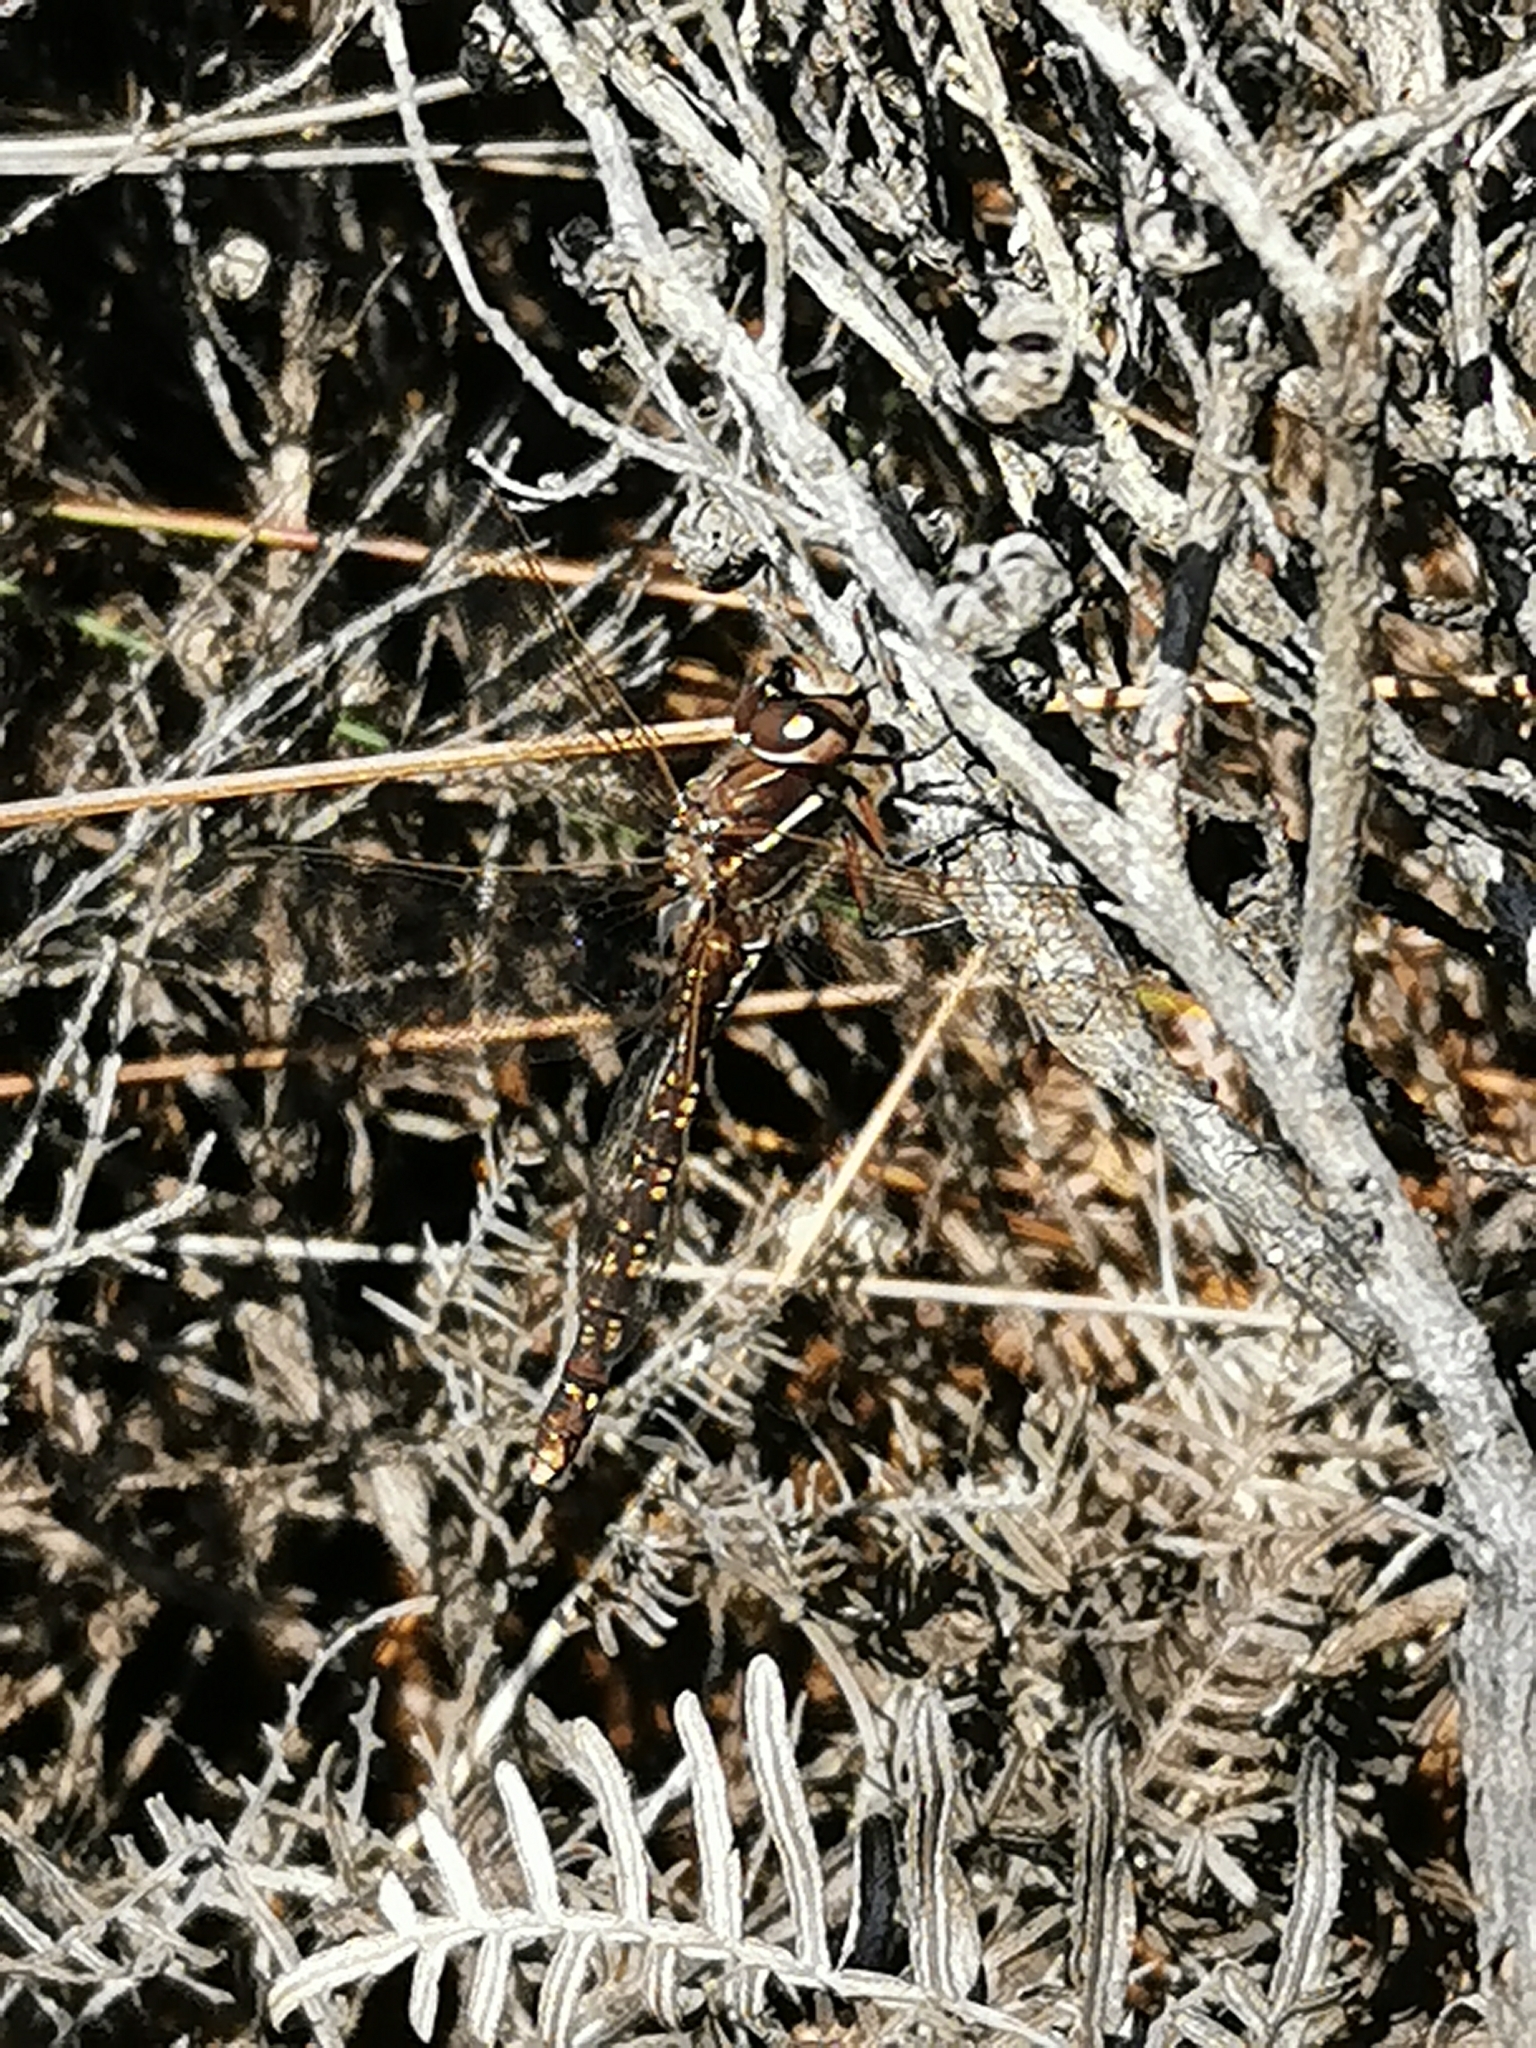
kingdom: Animalia
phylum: Arthropoda
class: Insecta
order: Odonata
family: Aeshnidae
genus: Aeshna
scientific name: Aeshna brevistyla
